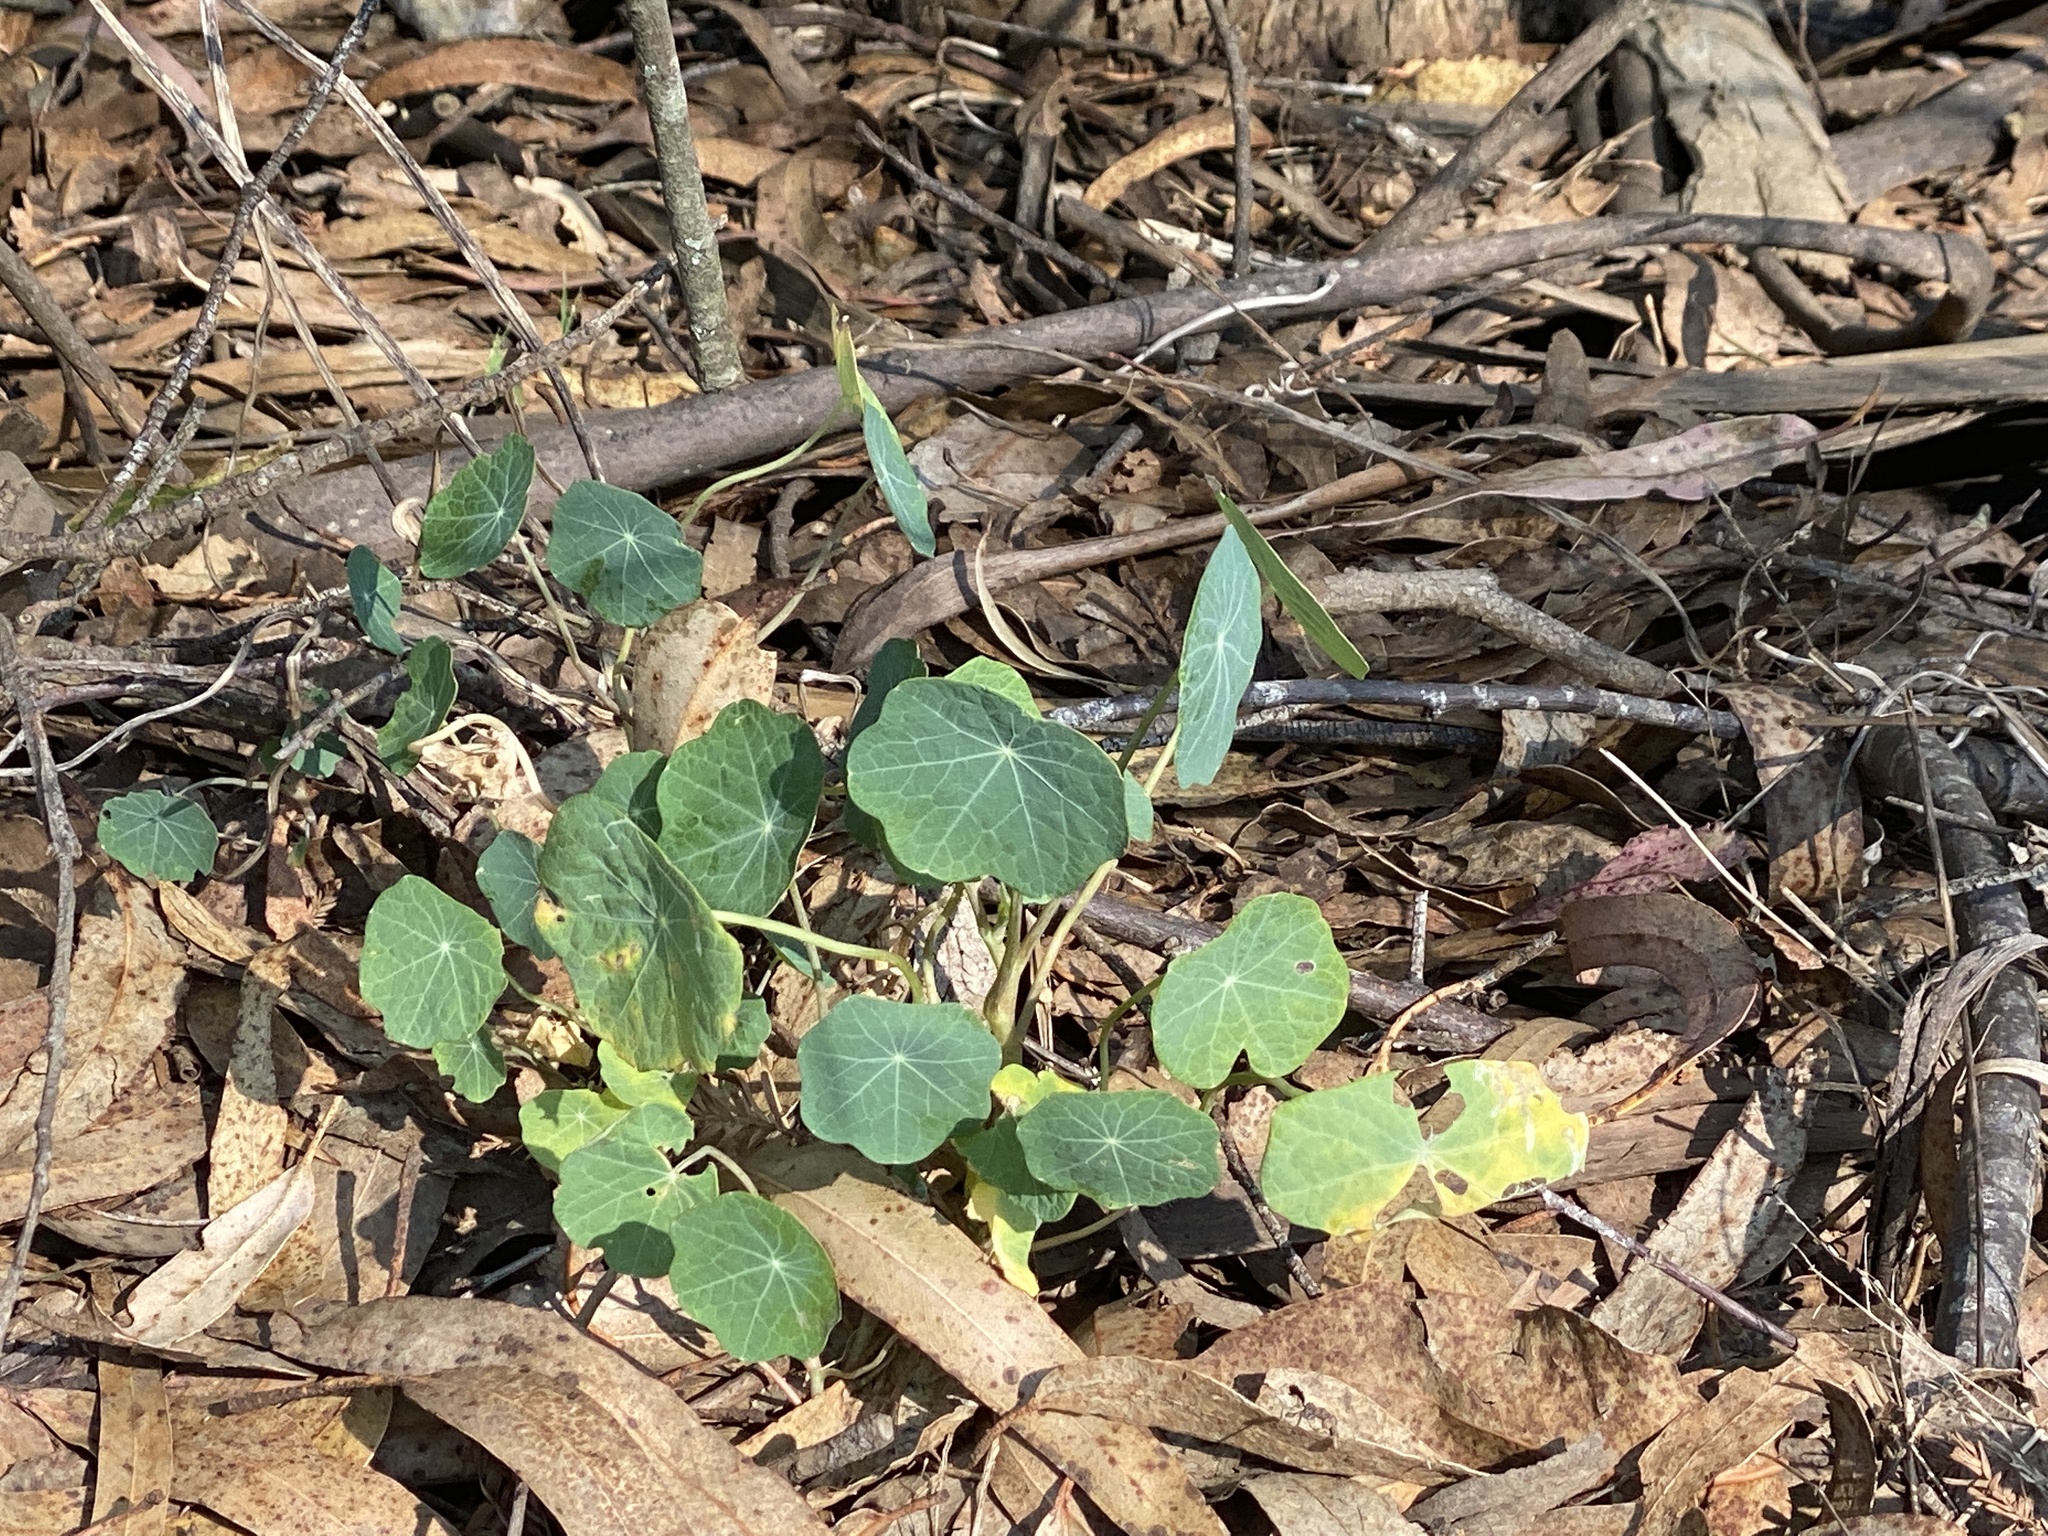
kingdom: Plantae
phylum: Tracheophyta
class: Magnoliopsida
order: Brassicales
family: Tropaeolaceae
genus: Tropaeolum
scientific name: Tropaeolum majus
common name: Nasturtium
